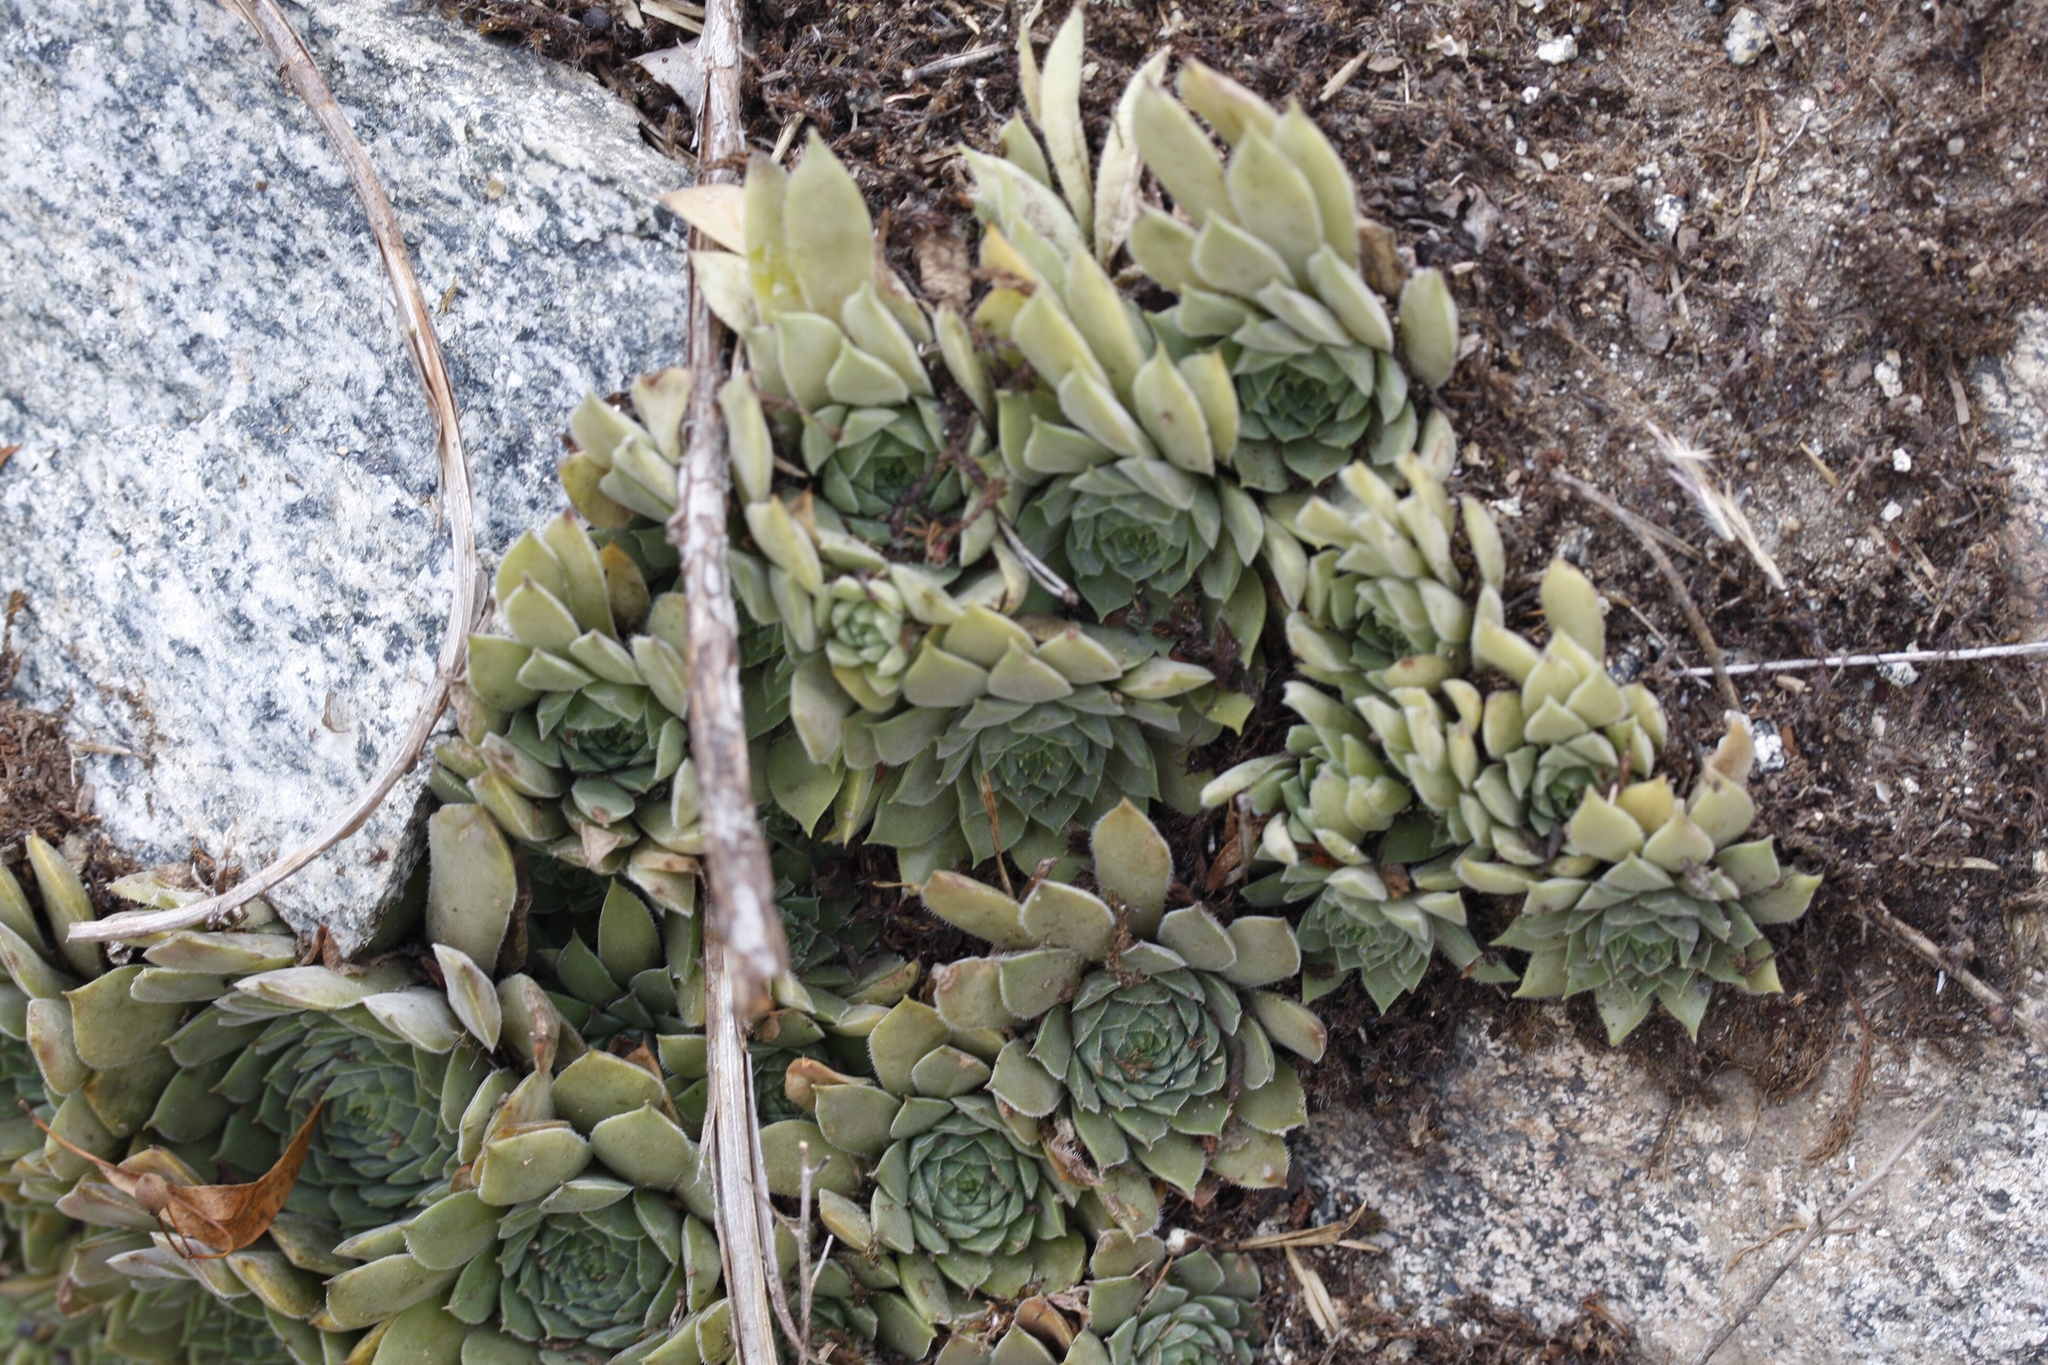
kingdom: Plantae
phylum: Tracheophyta
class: Magnoliopsida
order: Saxifragales
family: Crassulaceae
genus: Sempervivum
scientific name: Sempervivum marmoreum
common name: Houseleek
